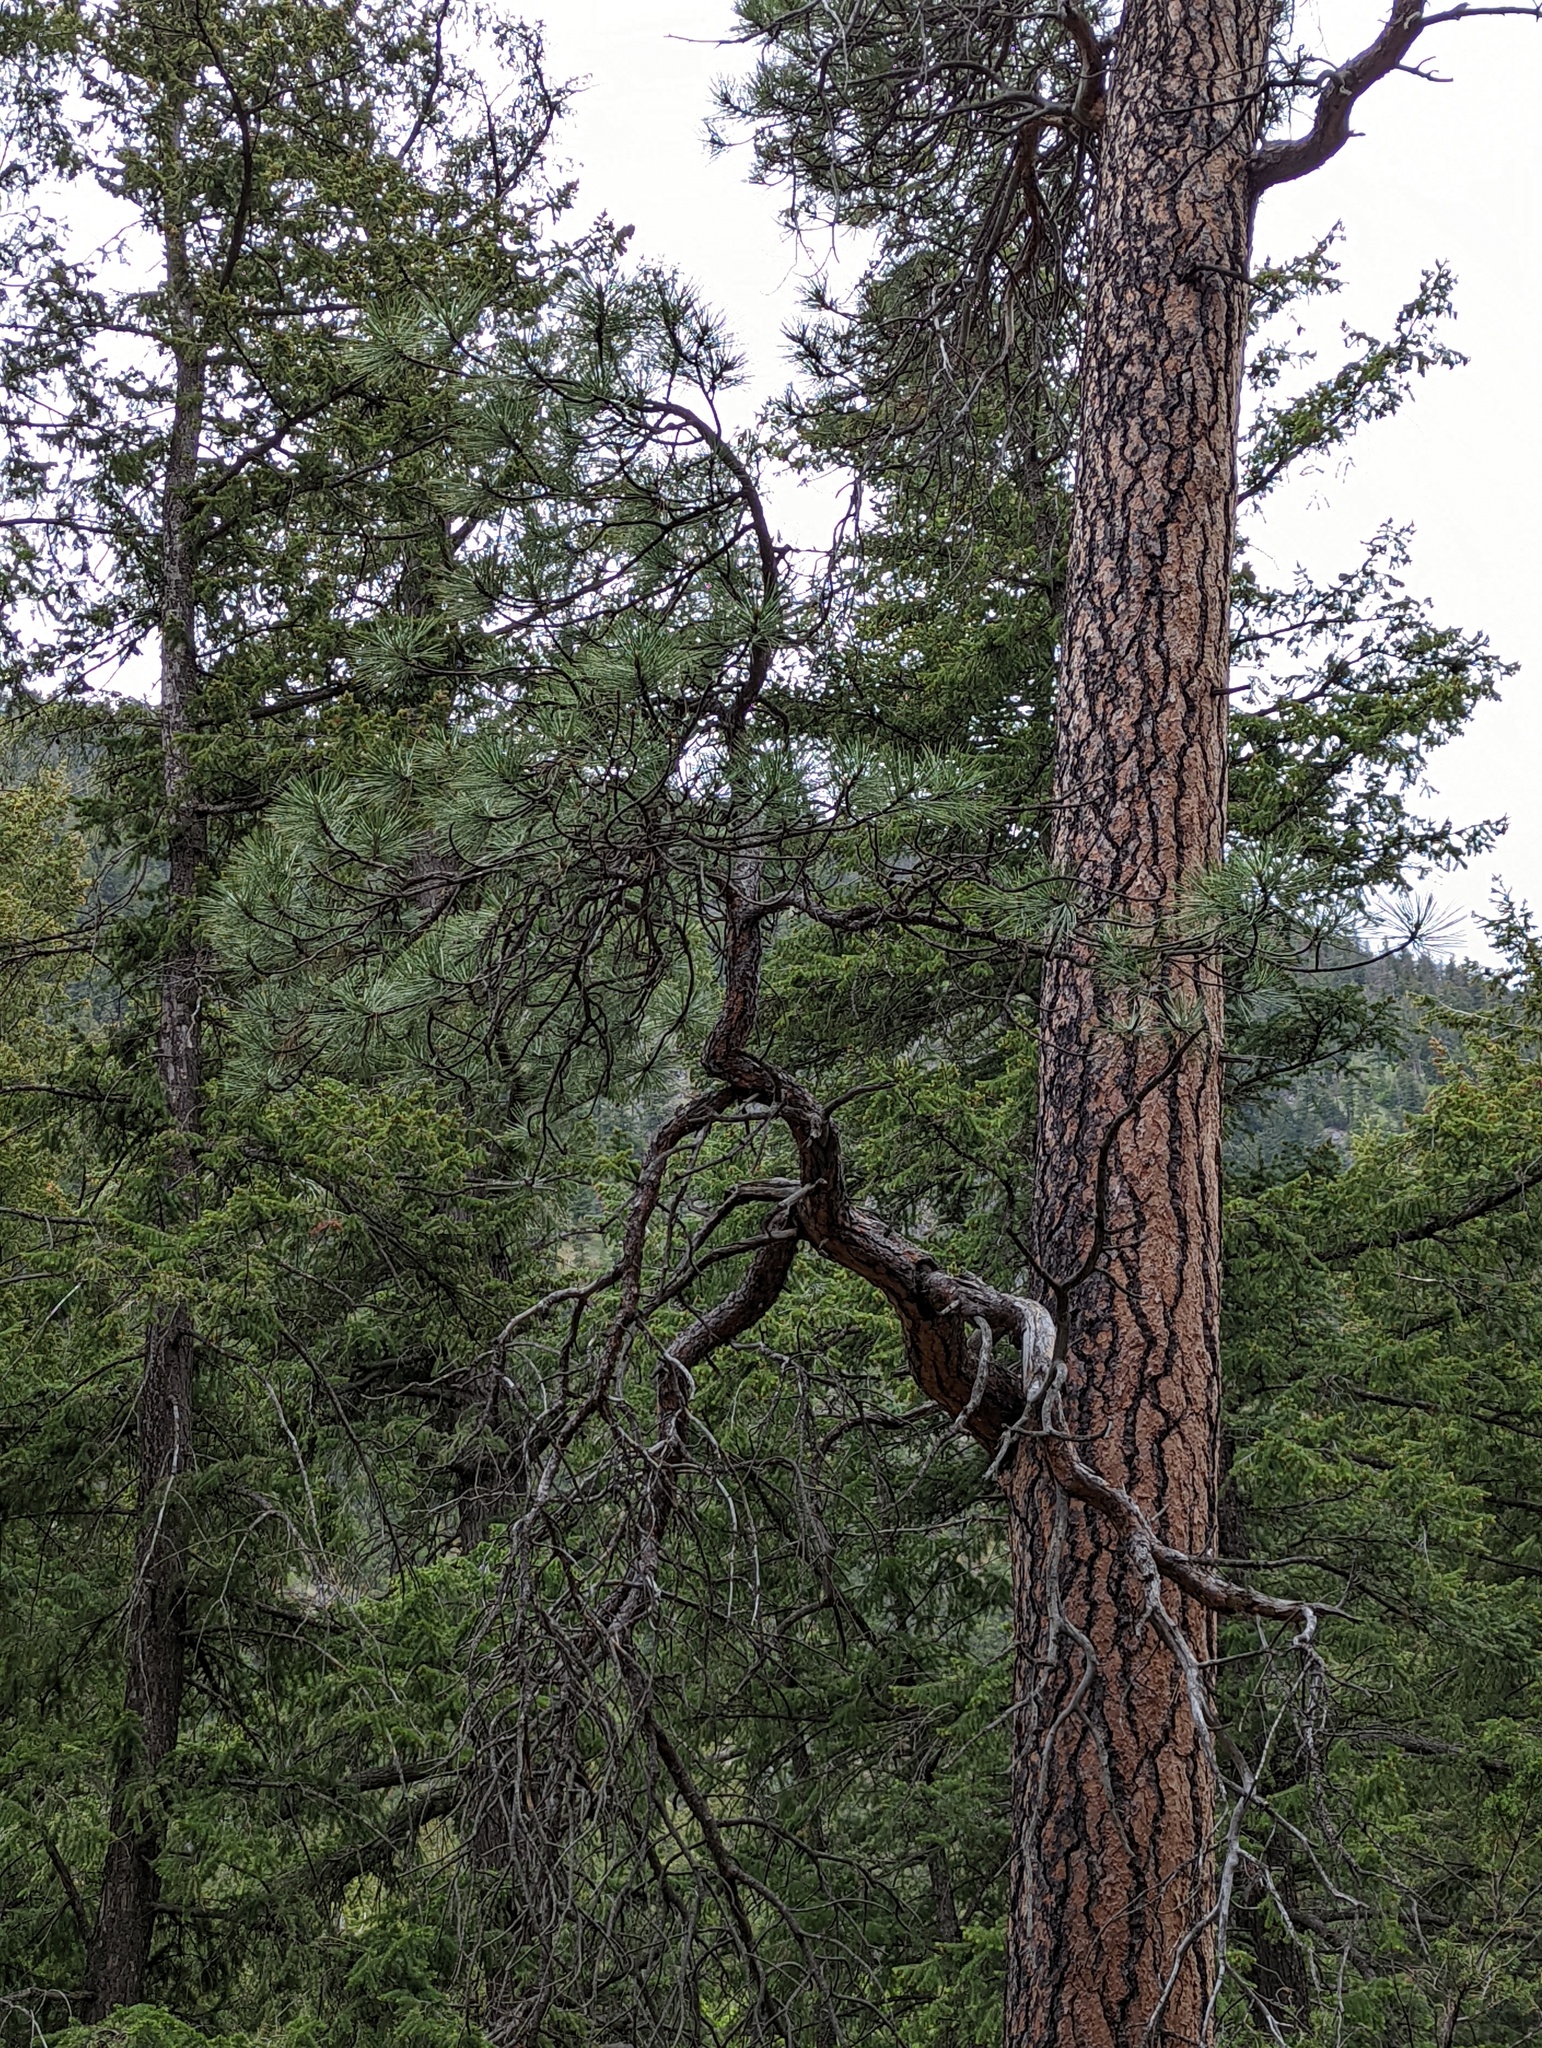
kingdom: Plantae
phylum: Tracheophyta
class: Pinopsida
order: Pinales
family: Pinaceae
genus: Pinus
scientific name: Pinus ponderosa
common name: Western yellow-pine
